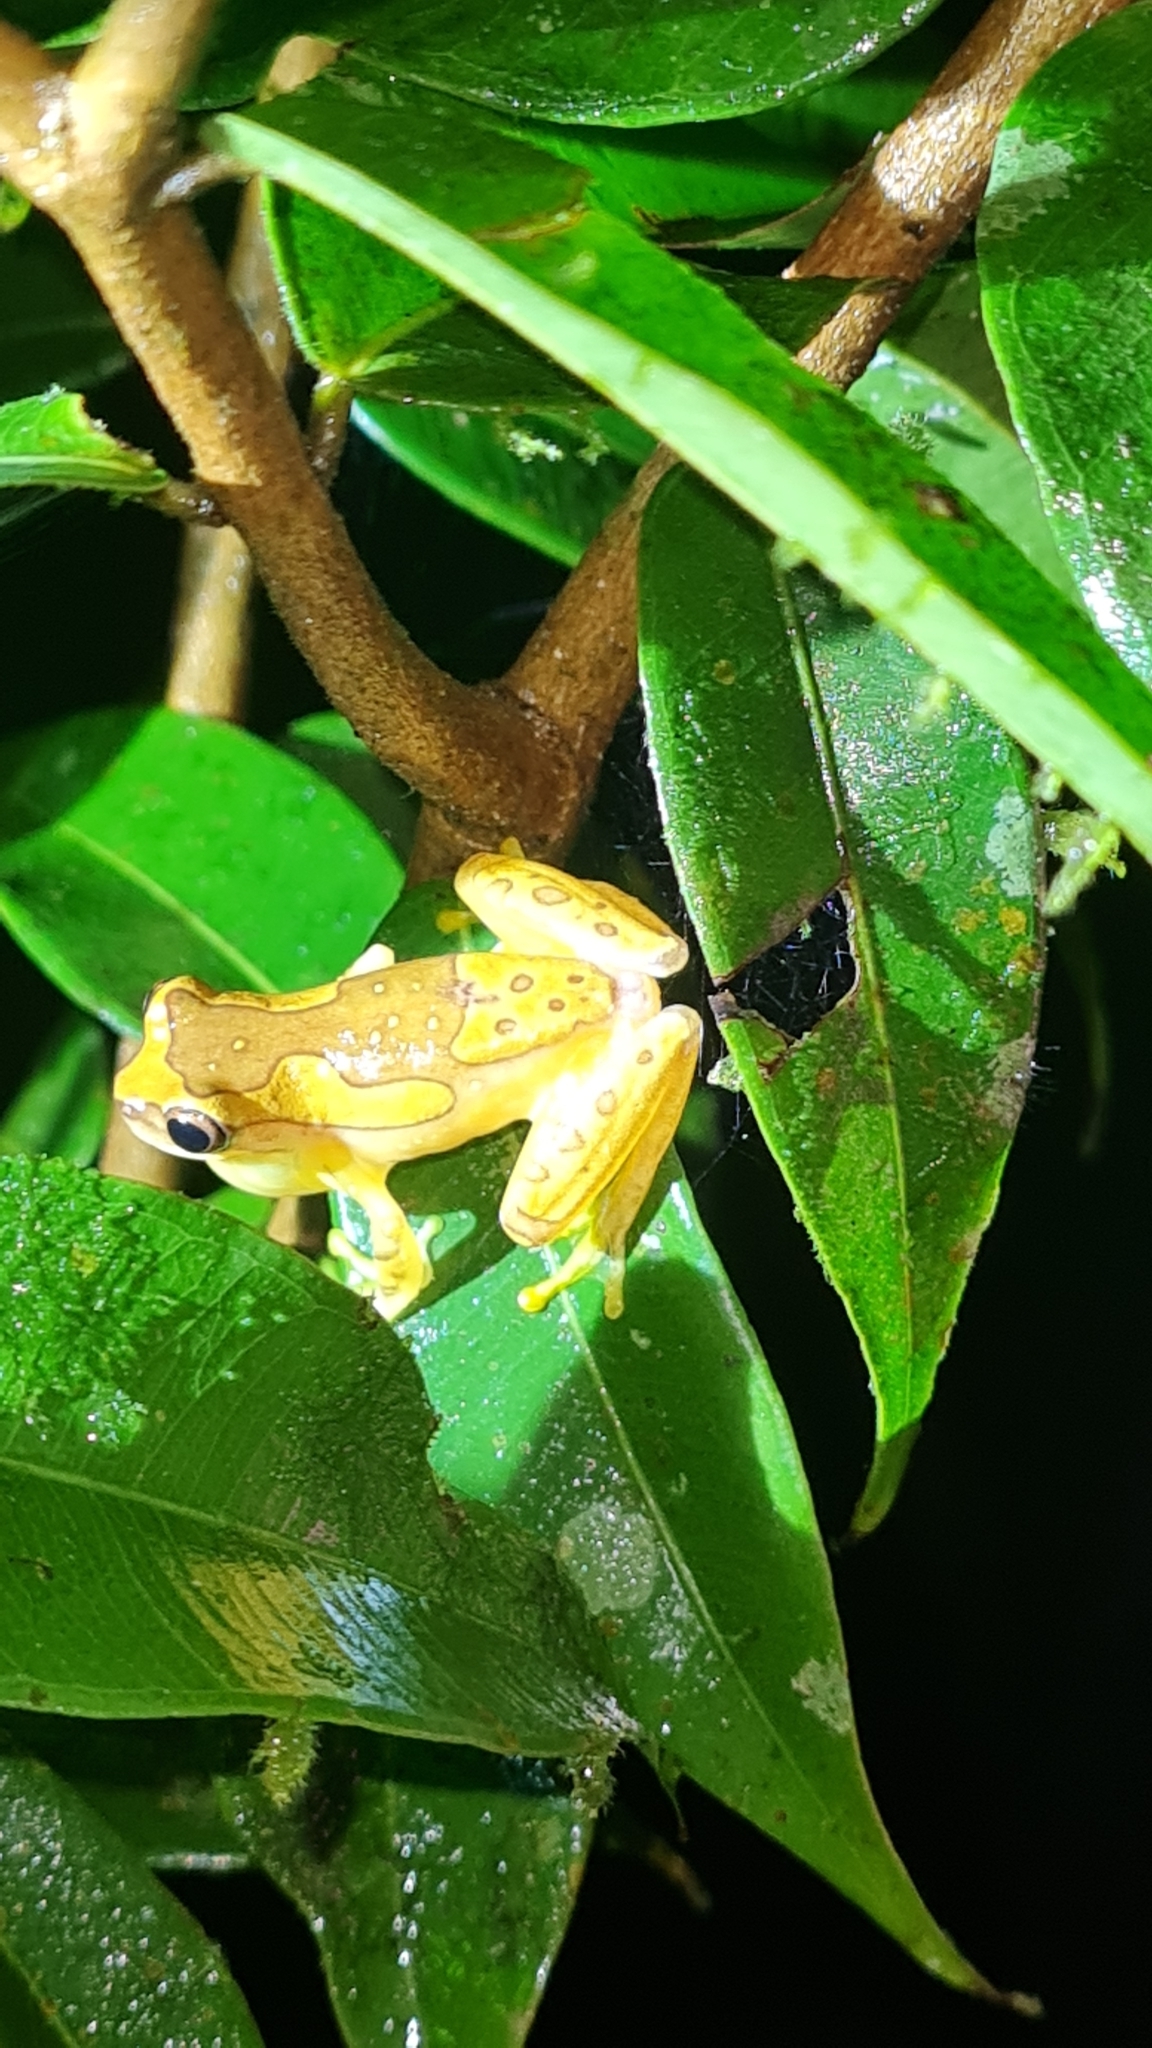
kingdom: Animalia
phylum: Chordata
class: Amphibia
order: Anura
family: Hylidae
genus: Dendropsophus
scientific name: Dendropsophus ebraccatus
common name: Hourglass treefrog
